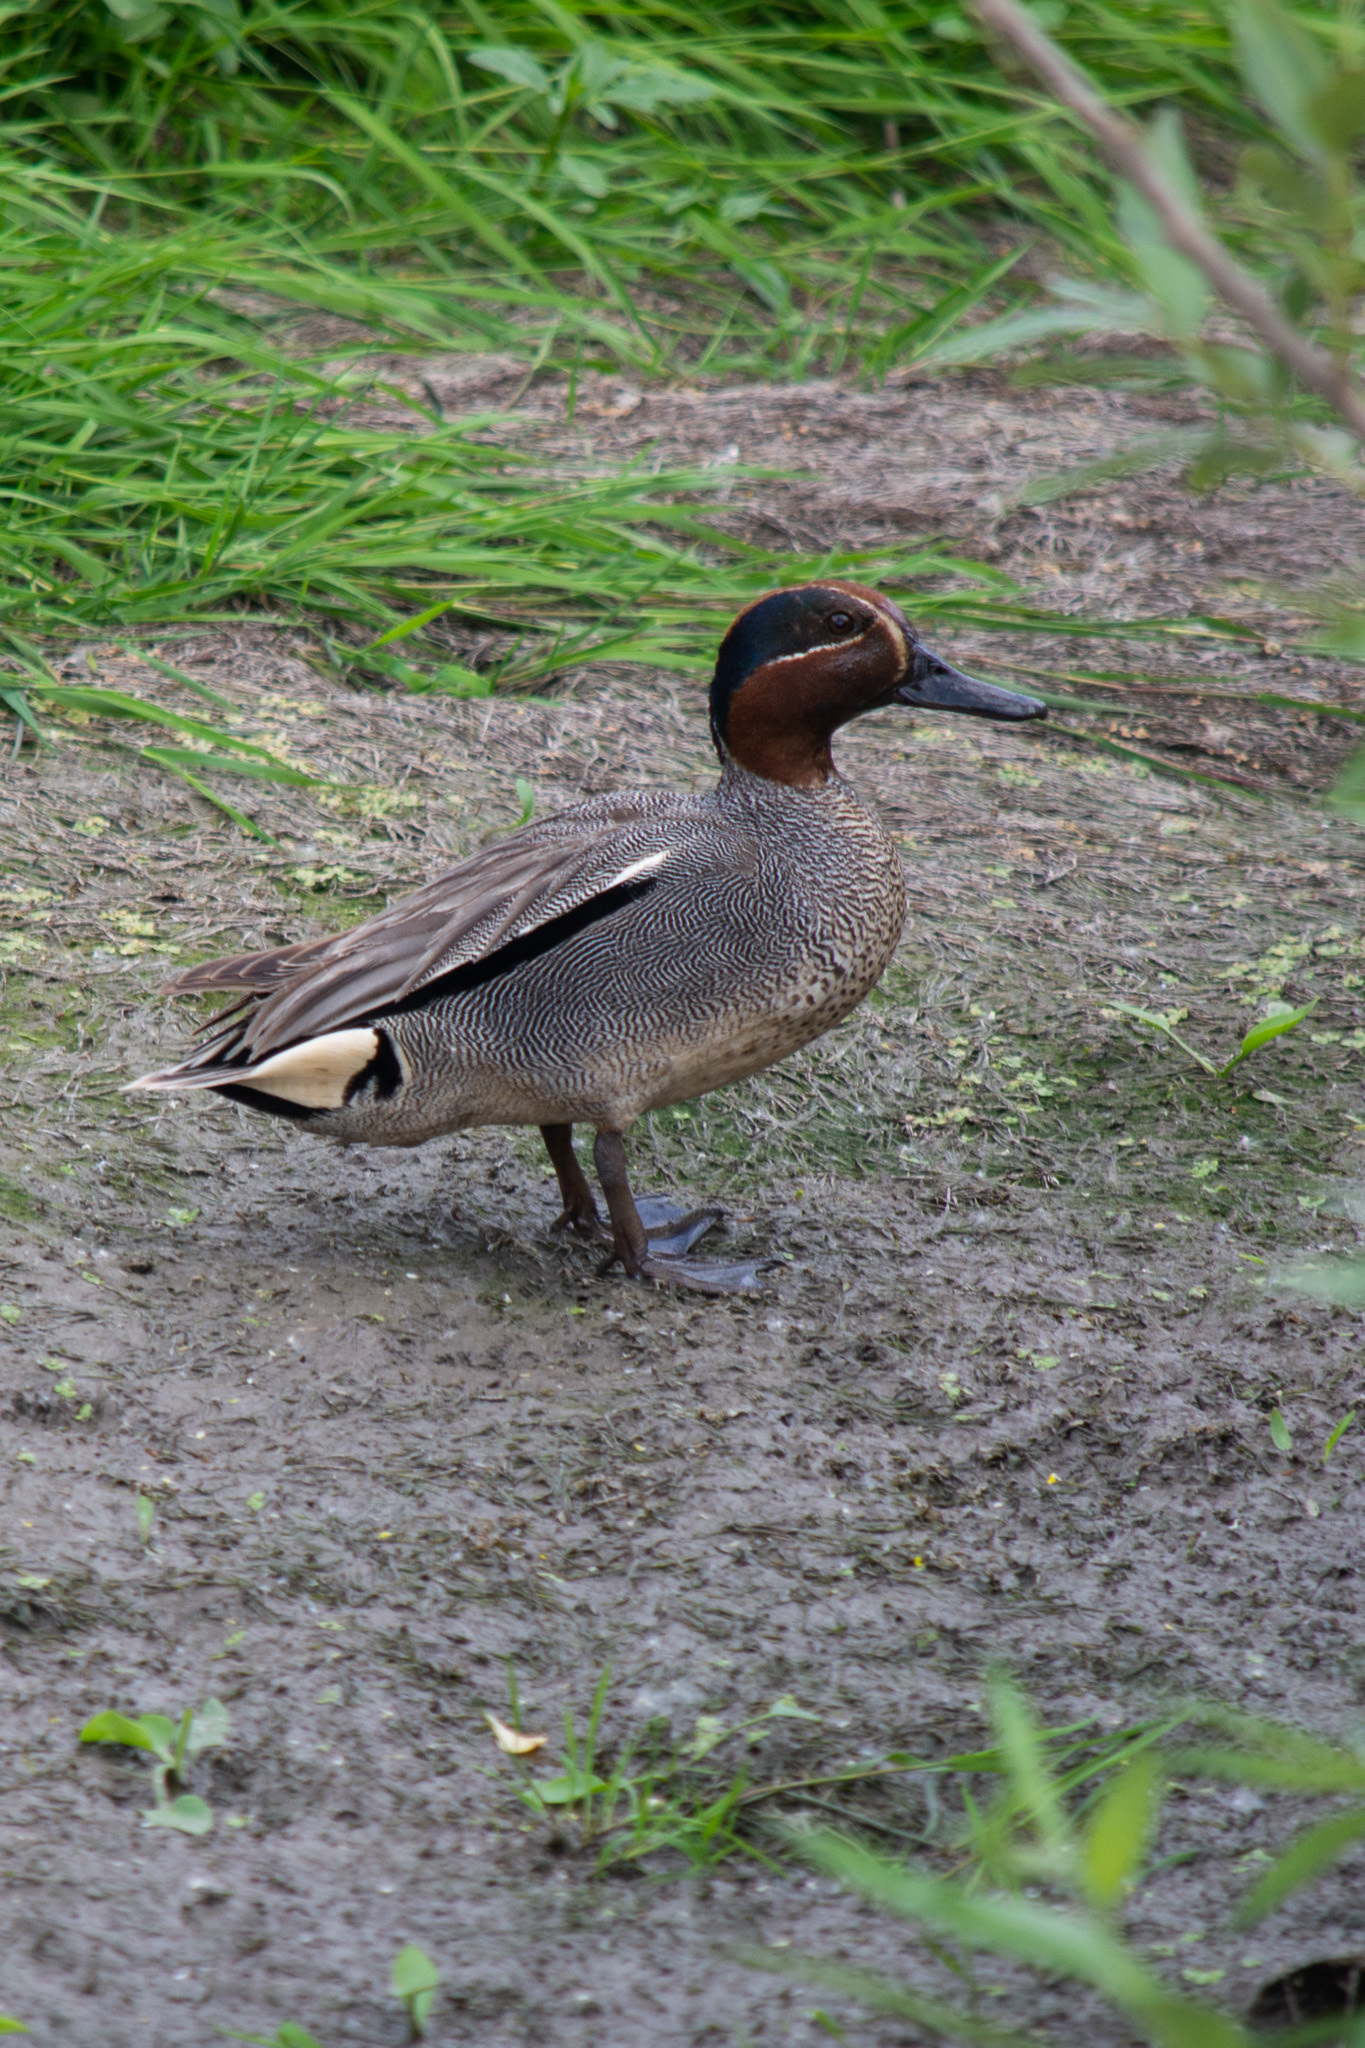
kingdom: Animalia
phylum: Chordata
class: Aves
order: Anseriformes
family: Anatidae
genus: Anas
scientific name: Anas crecca
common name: Eurasian teal
